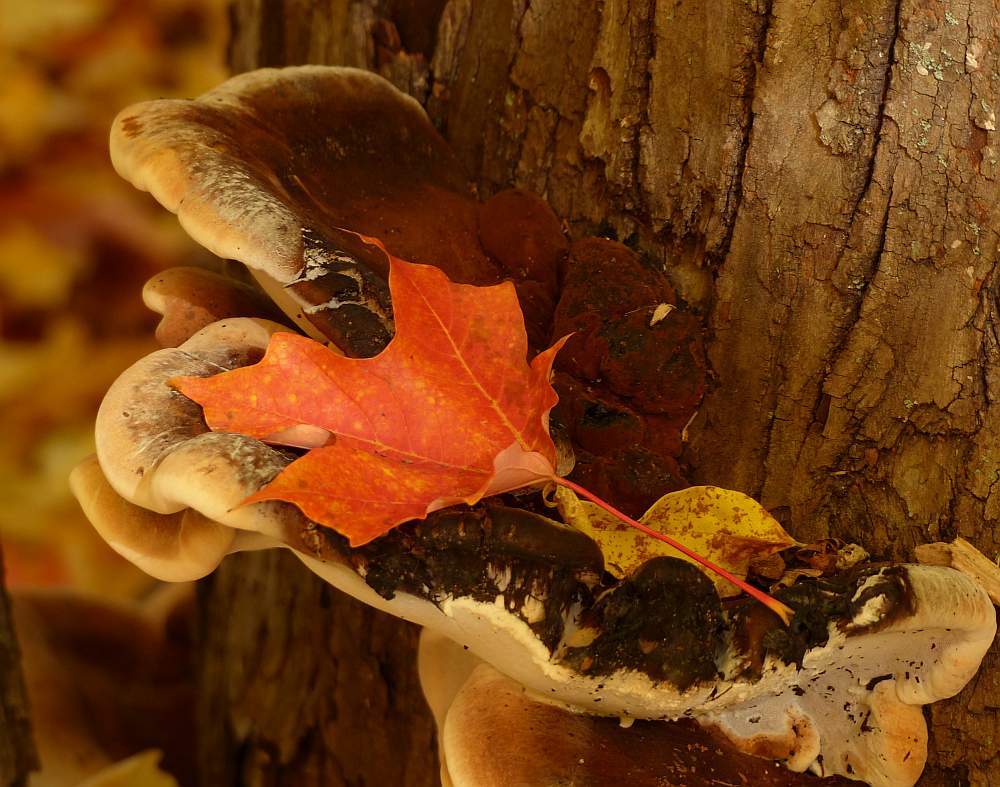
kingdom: Fungi
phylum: Basidiomycota
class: Agaricomycetes
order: Polyporales
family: Ischnodermataceae
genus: Ischnoderma
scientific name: Ischnoderma resinosum
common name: Resinous polypore
